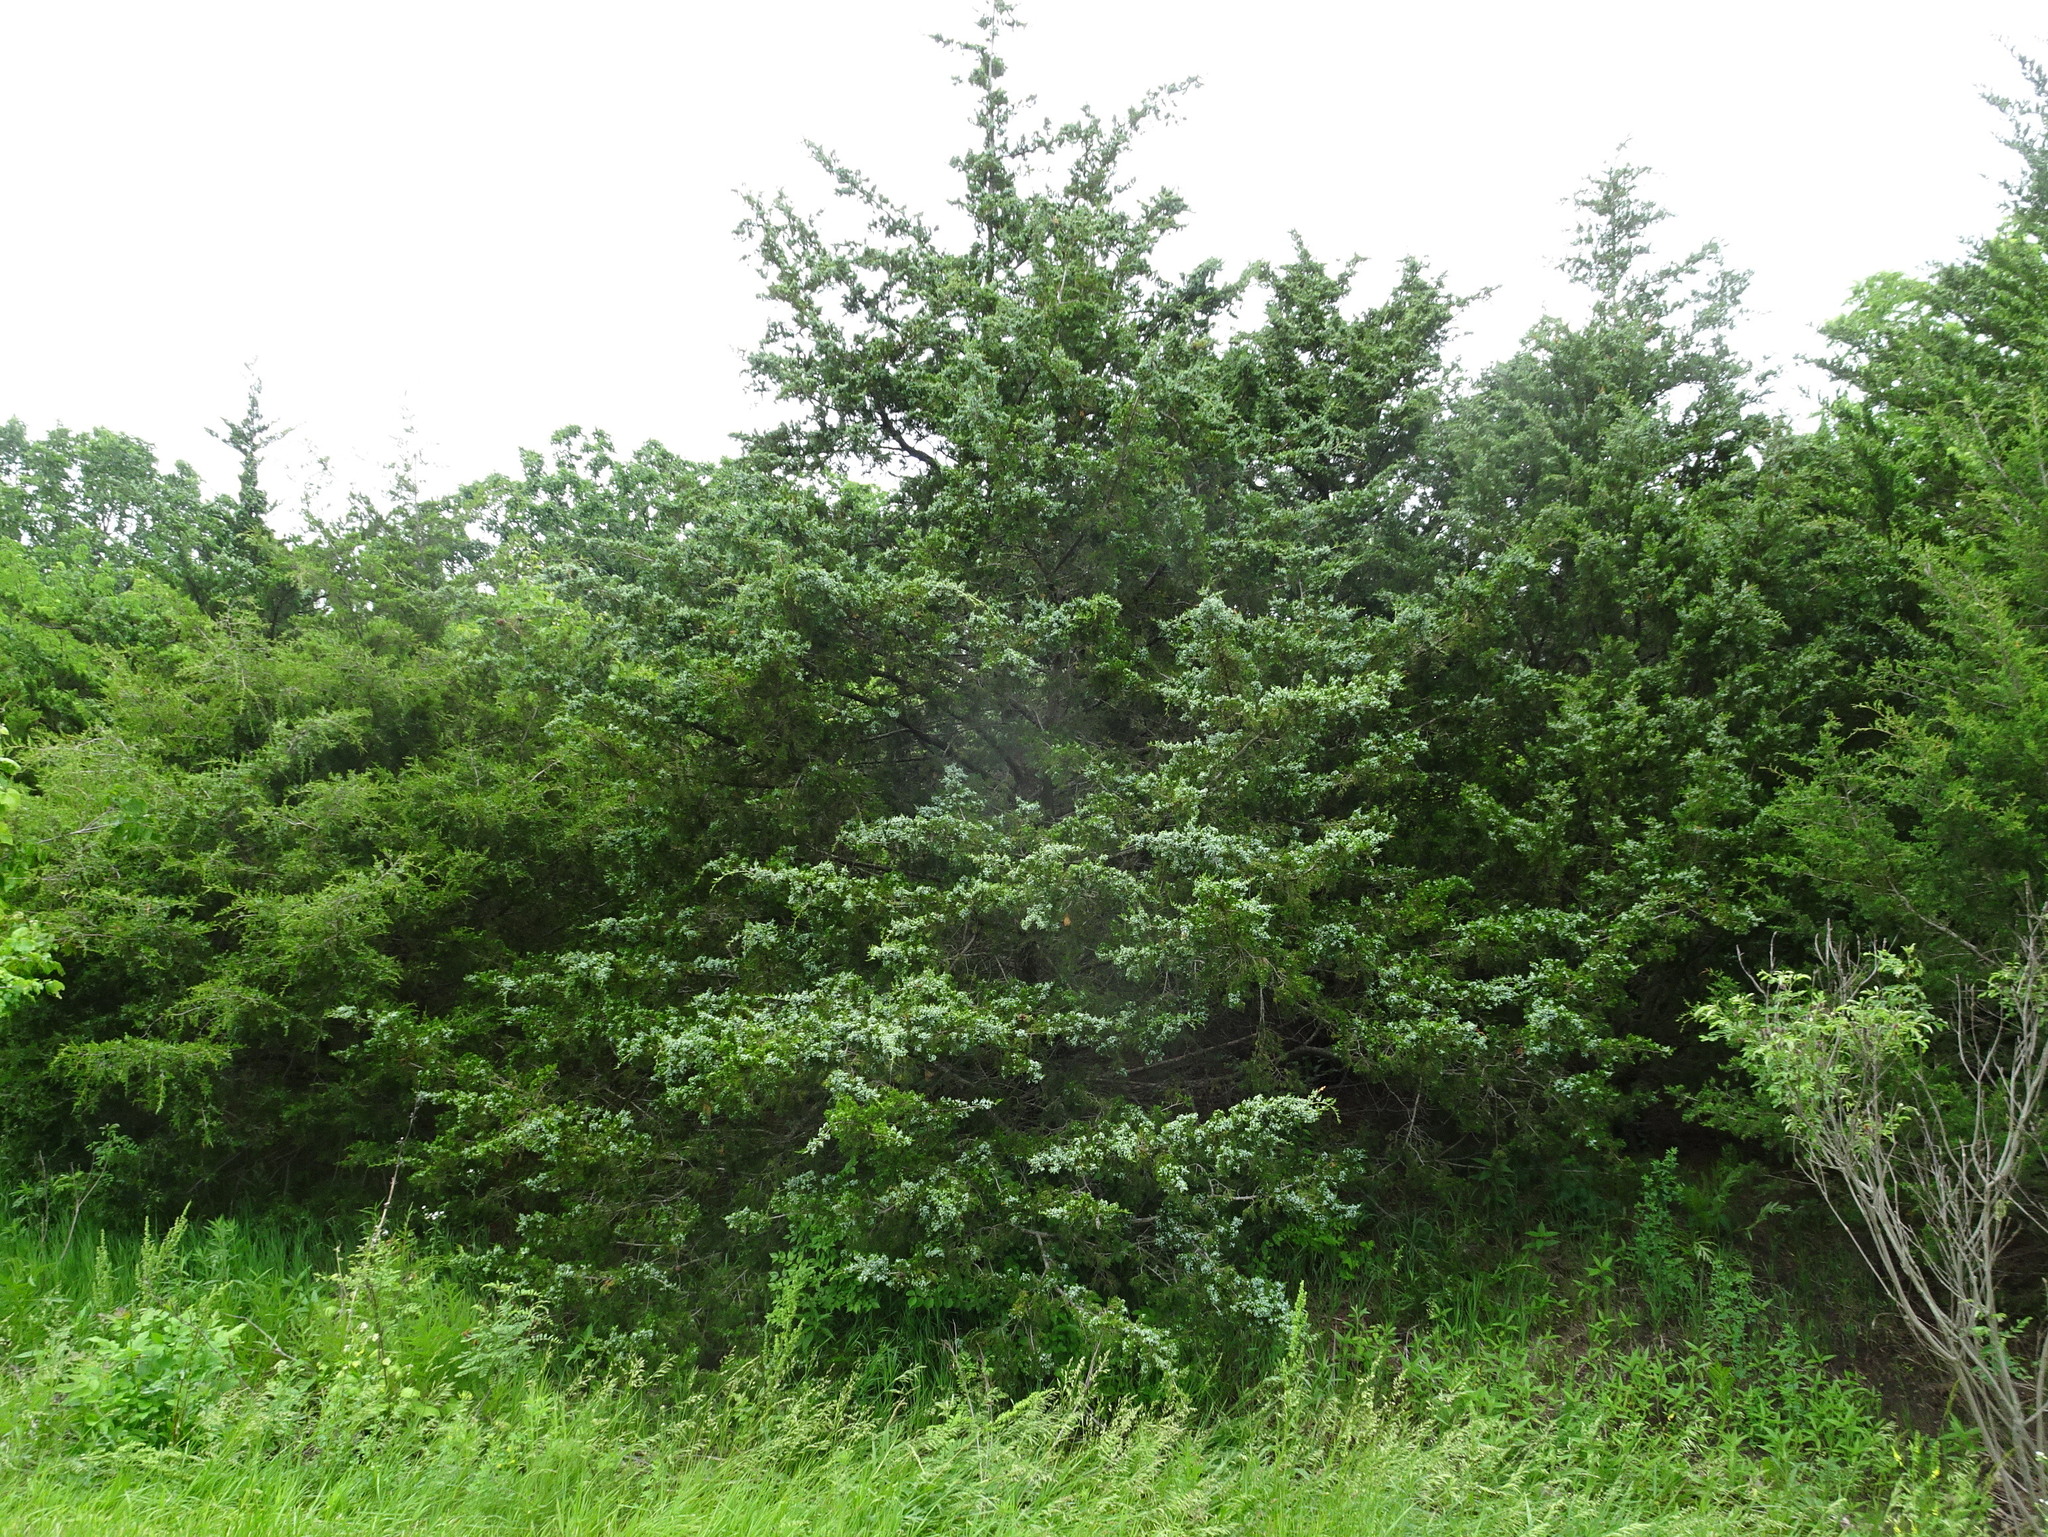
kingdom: Plantae
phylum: Tracheophyta
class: Pinopsida
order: Pinales
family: Cupressaceae
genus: Juniperus
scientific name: Juniperus virginiana
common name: Red juniper
